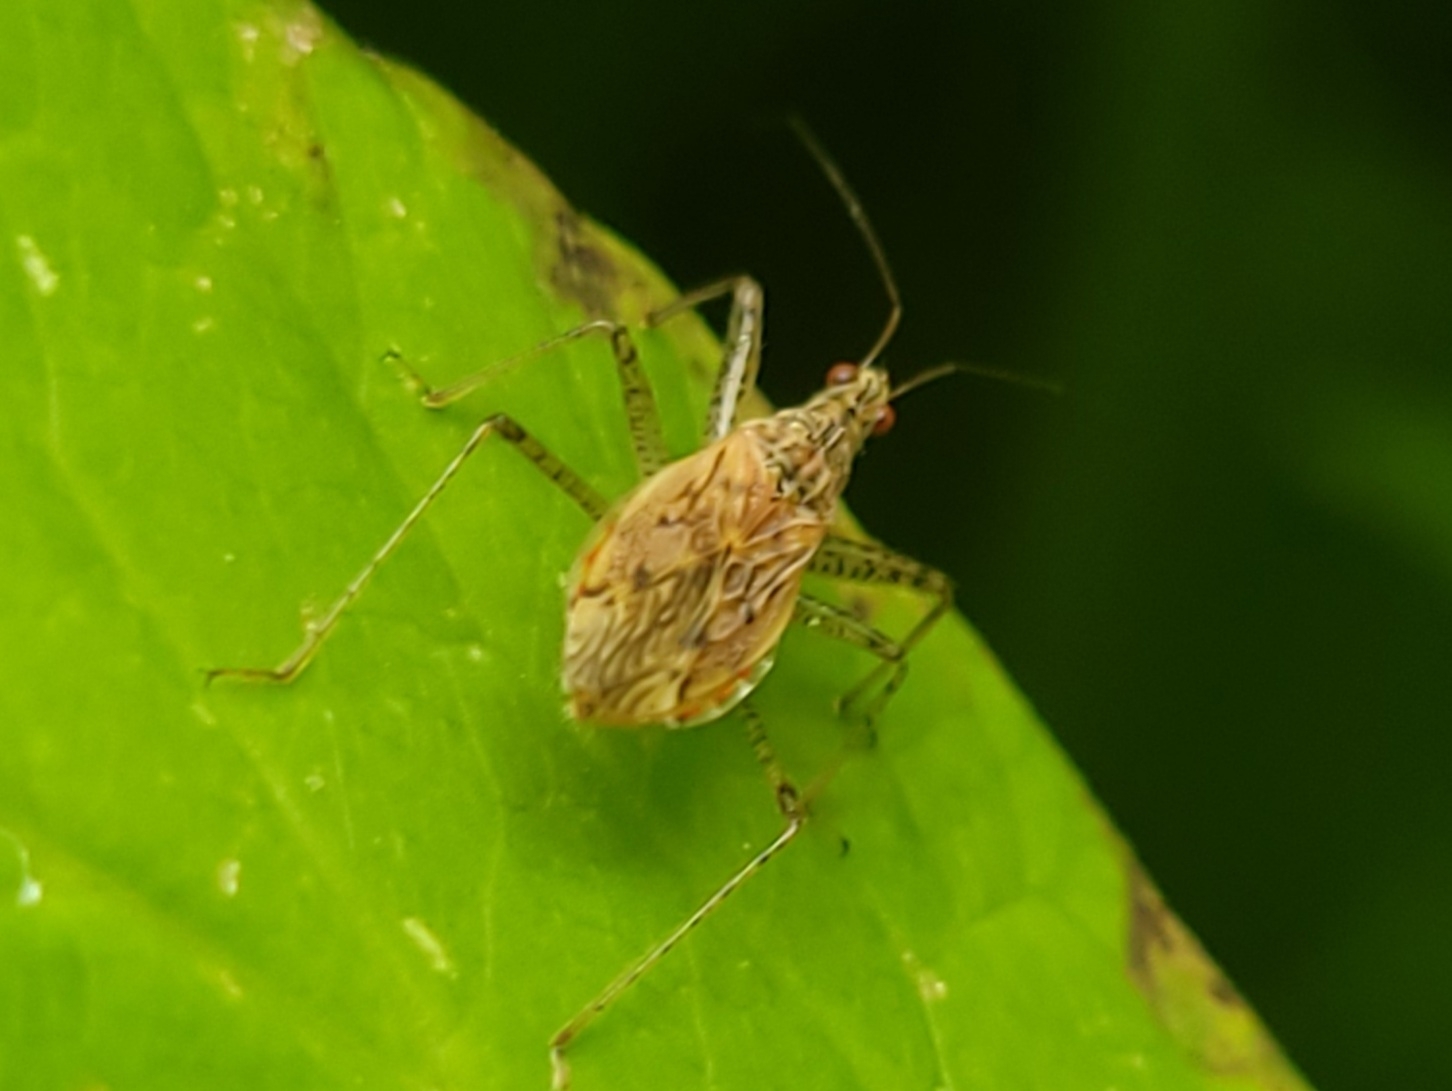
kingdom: Animalia
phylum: Arthropoda
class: Insecta
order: Hemiptera
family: Nabidae
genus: Nabis
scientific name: Nabis roseipennis
